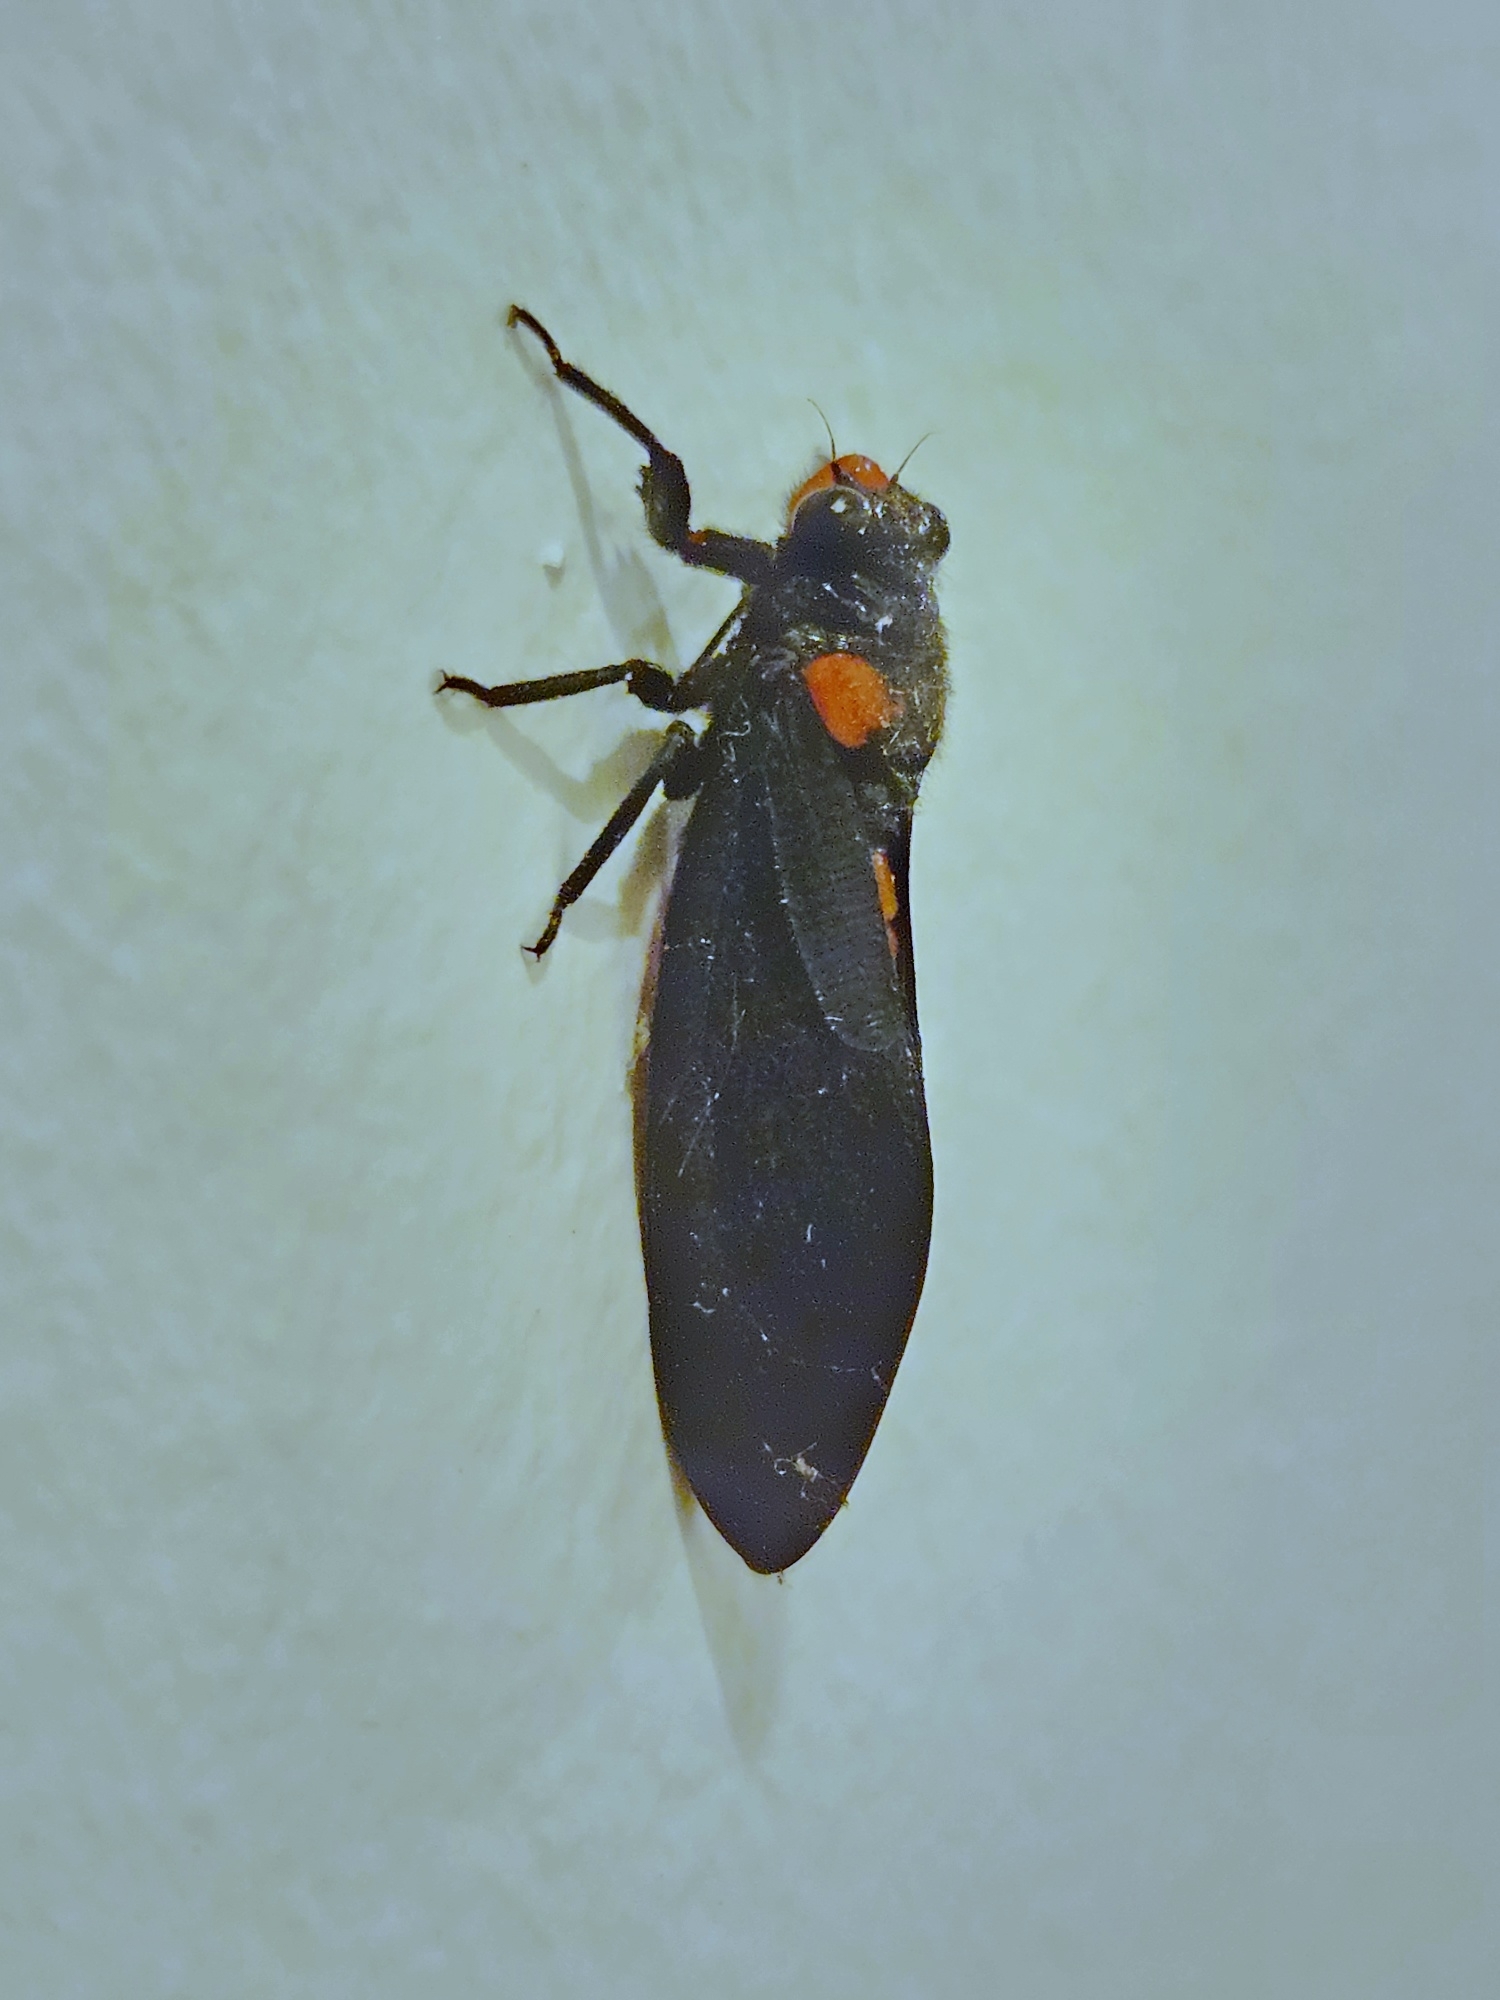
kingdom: Animalia
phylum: Arthropoda
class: Insecta
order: Hemiptera
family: Cicadidae
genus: Huechys
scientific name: Huechys sanguinea
